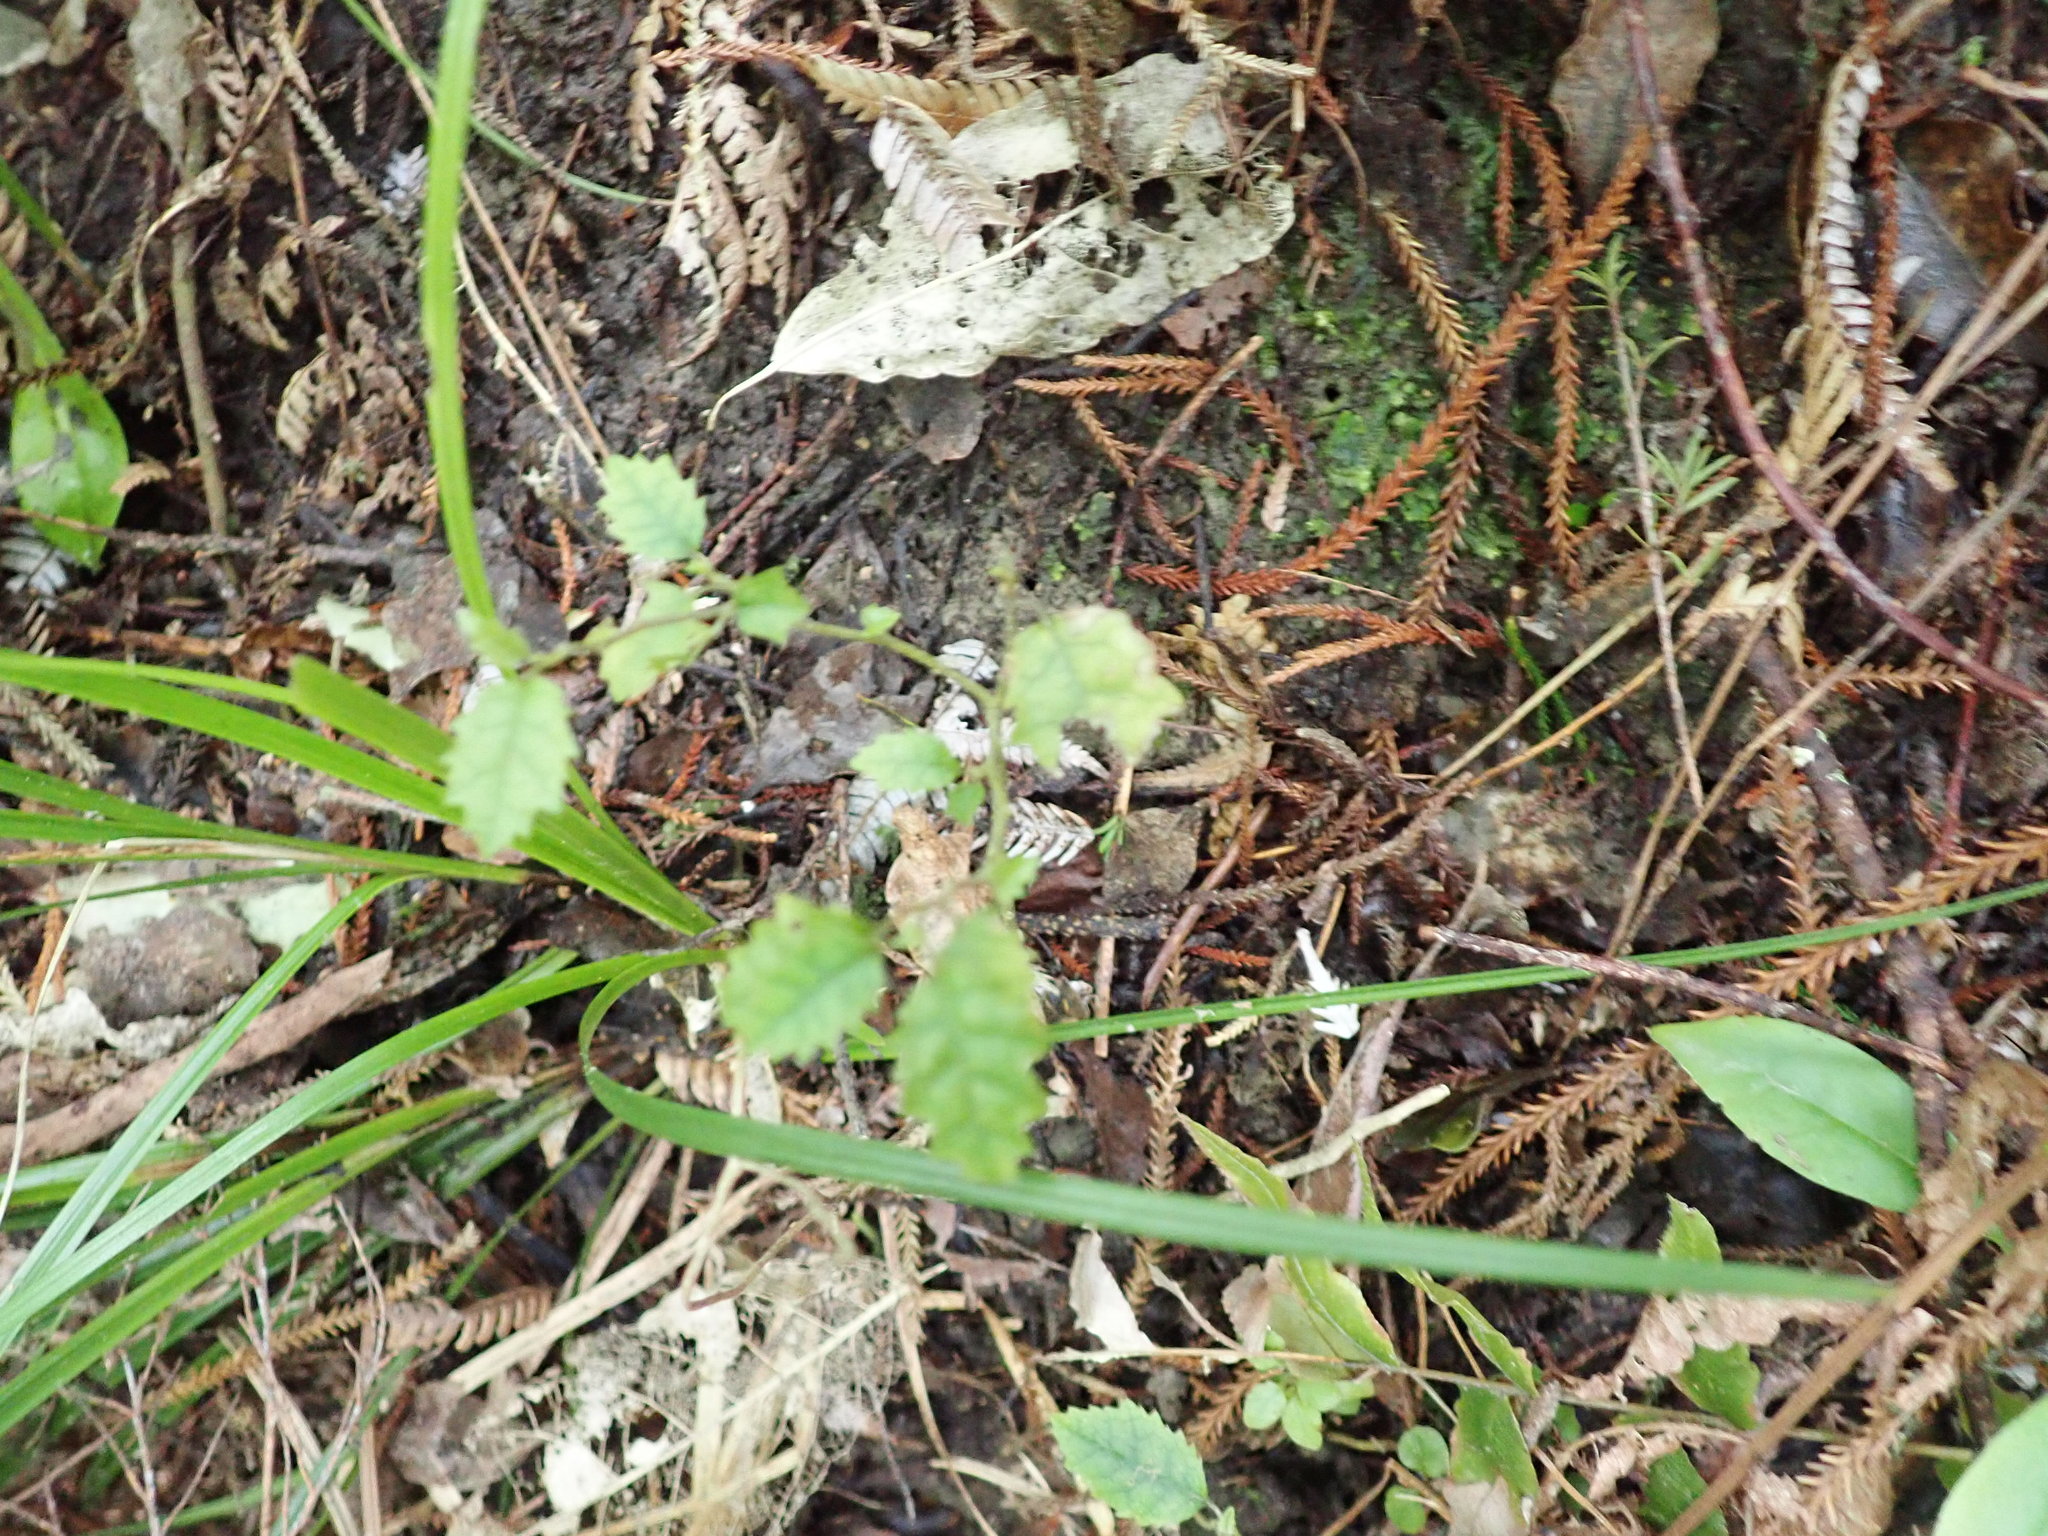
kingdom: Plantae
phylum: Tracheophyta
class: Magnoliopsida
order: Asterales
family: Rousseaceae
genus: Carpodetus
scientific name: Carpodetus serratus
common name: White mapau
